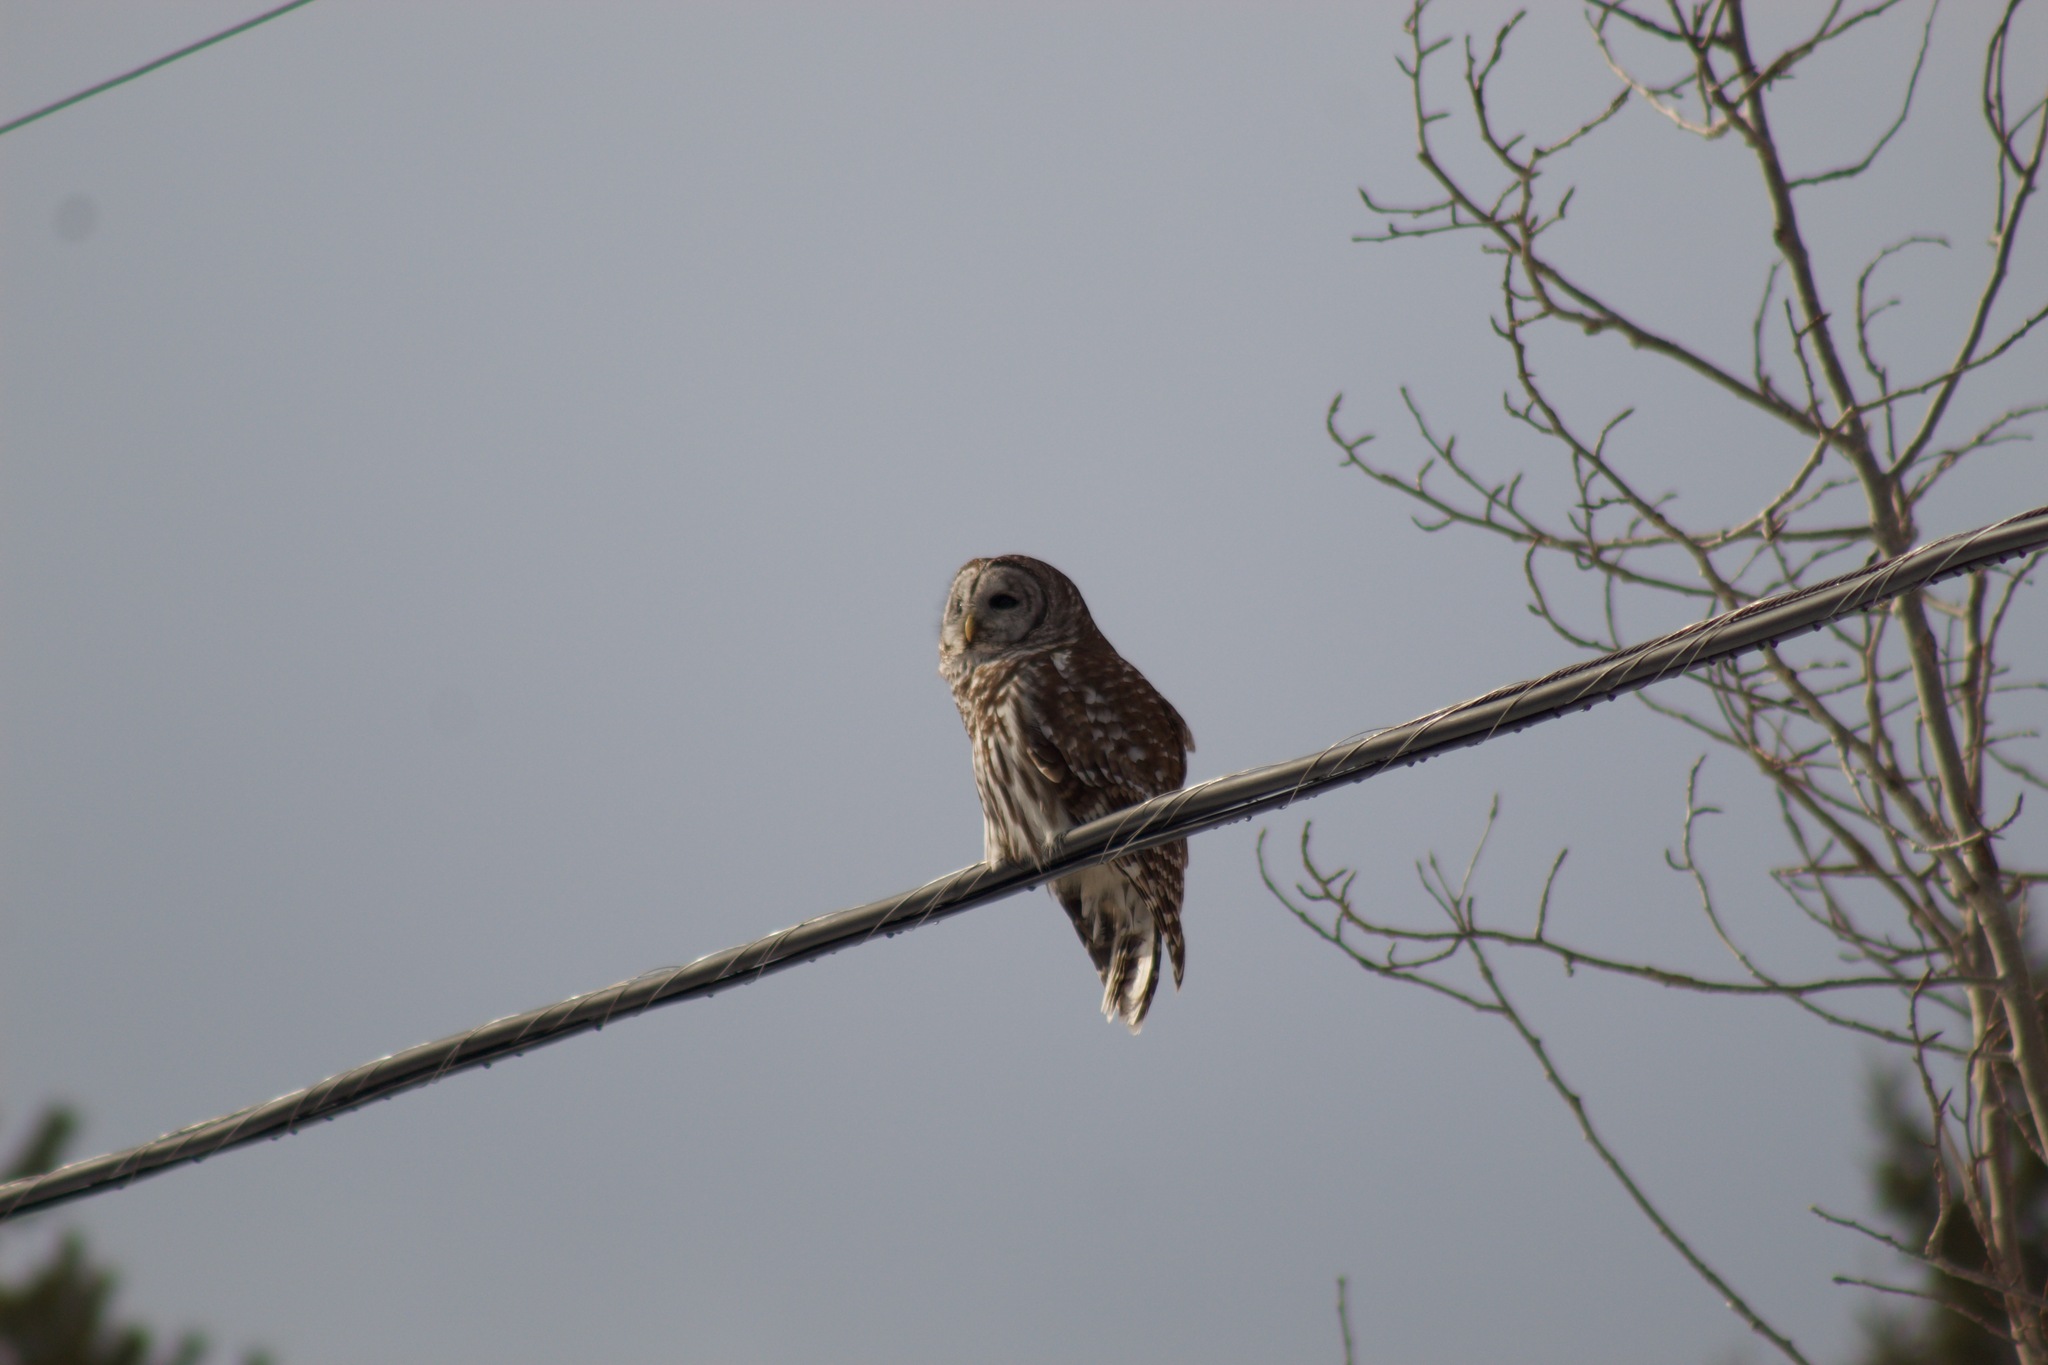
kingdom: Animalia
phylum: Chordata
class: Aves
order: Strigiformes
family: Strigidae
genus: Strix
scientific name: Strix varia
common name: Barred owl
